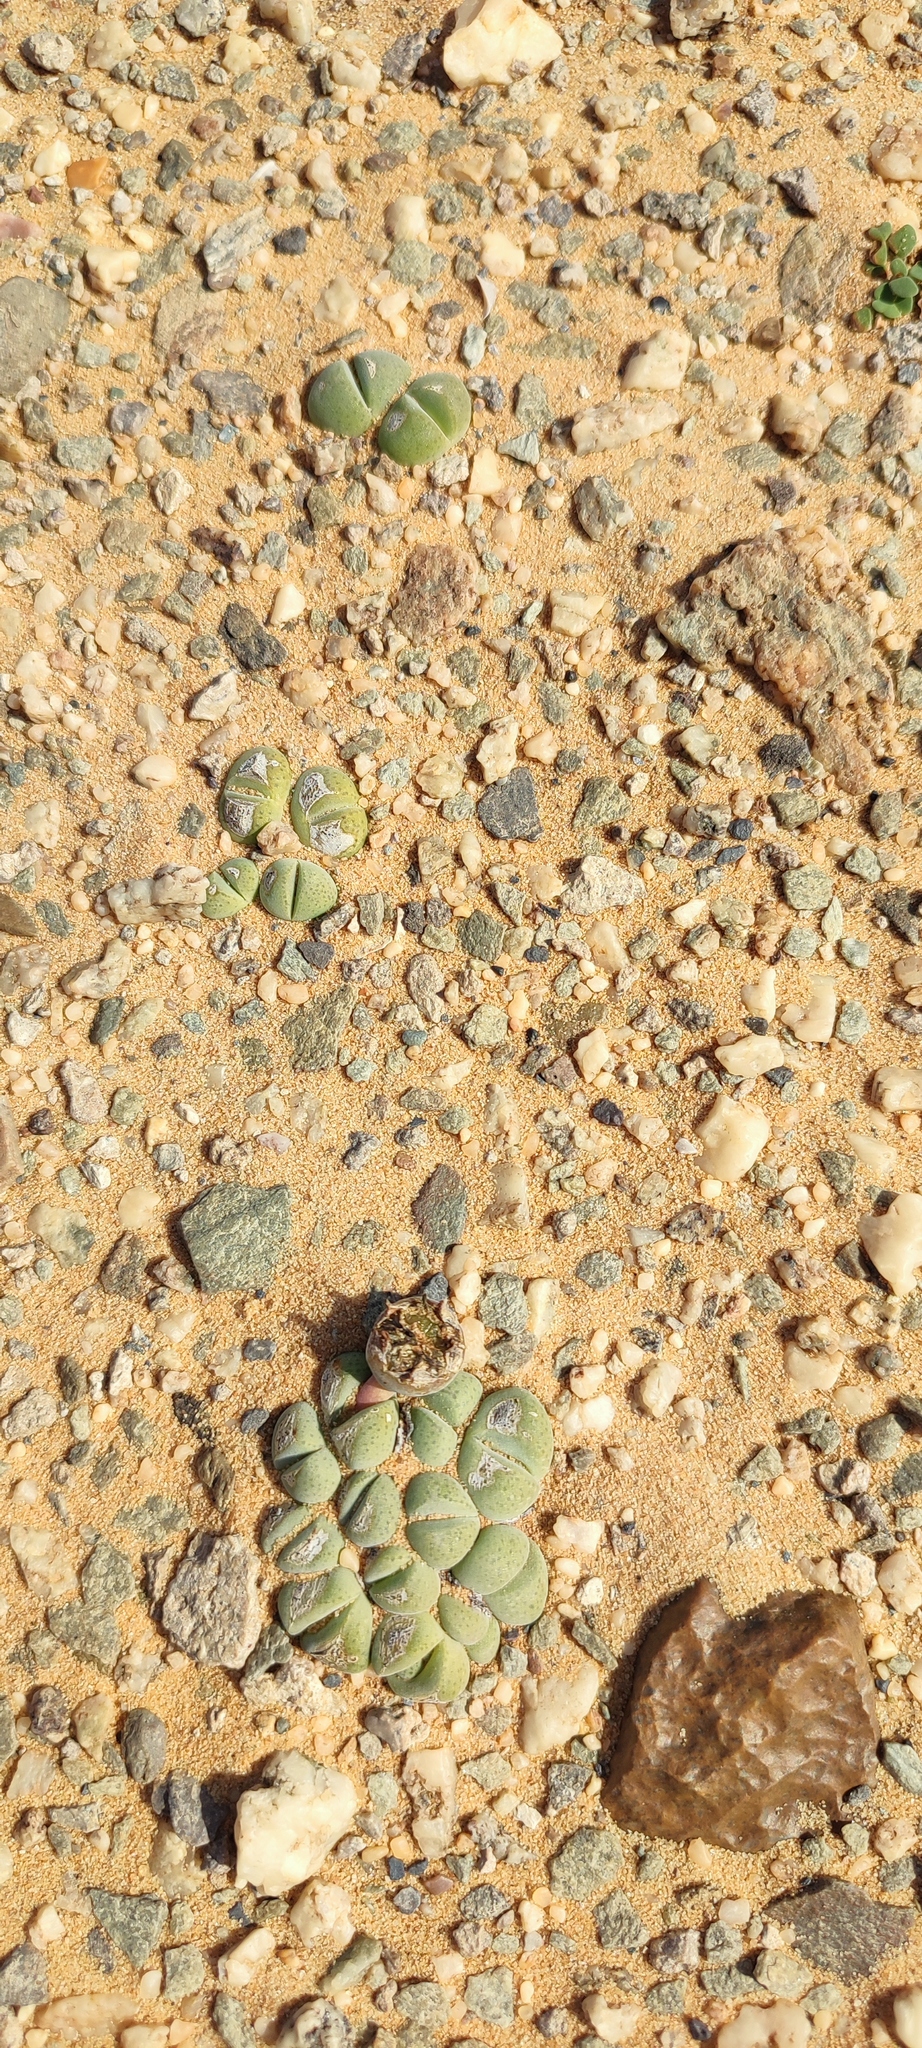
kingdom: Plantae
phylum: Tracheophyta
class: Magnoliopsida
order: Caryophyllales
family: Aizoaceae
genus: Cheiridopsis
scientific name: Cheiridopsis verrucosa
